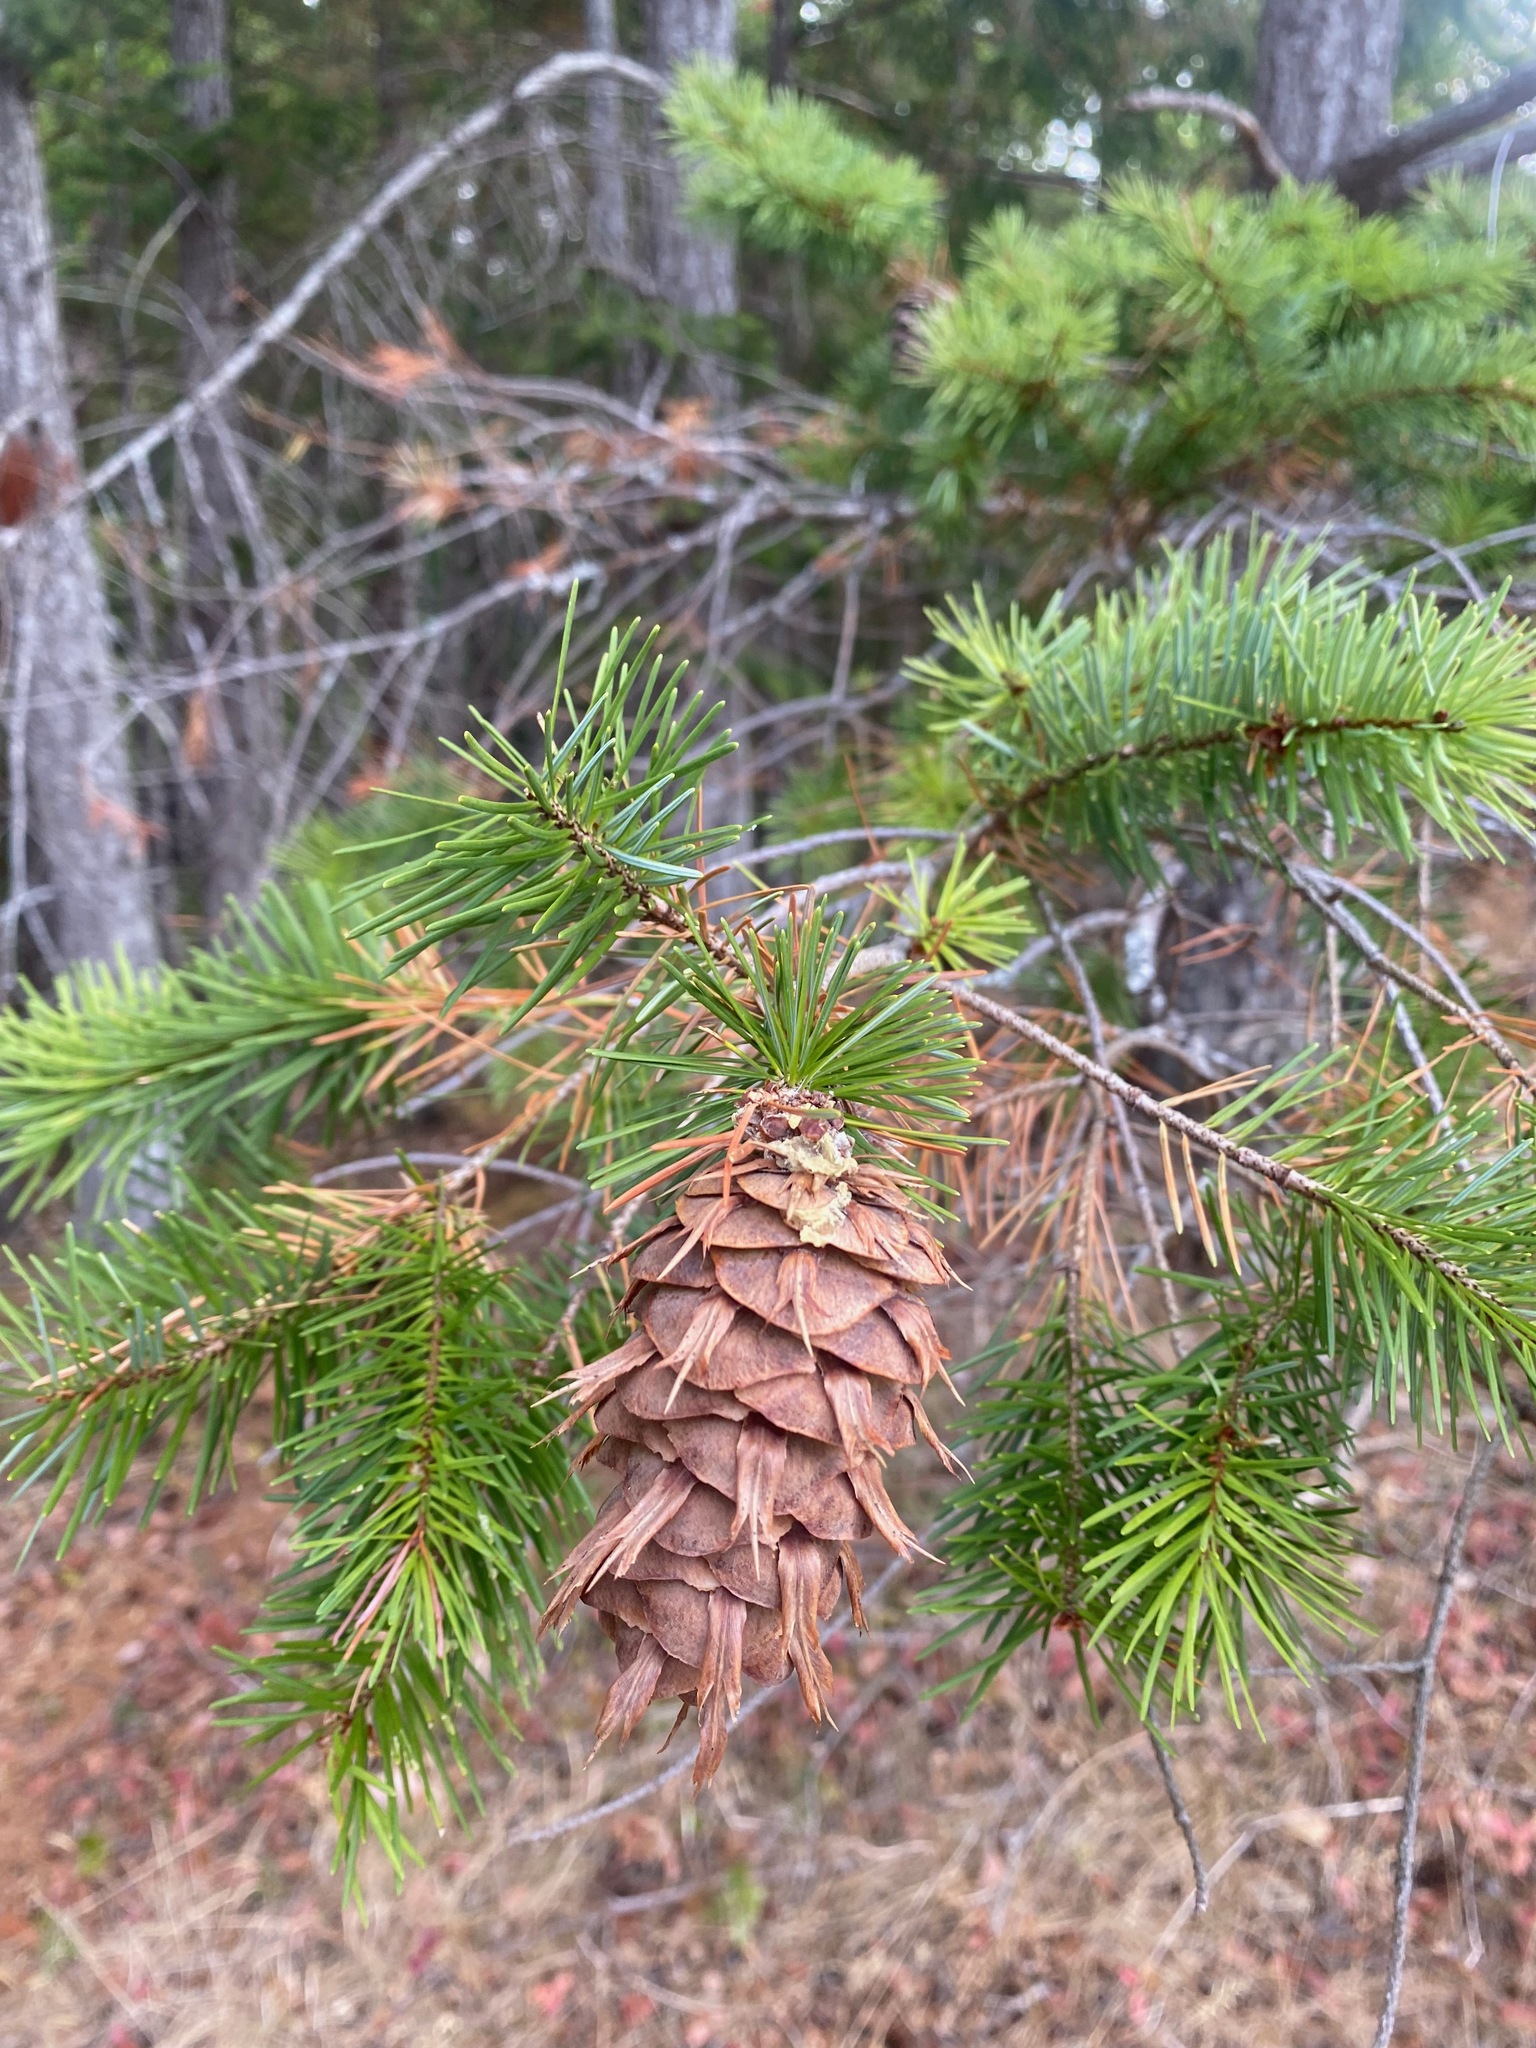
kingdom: Plantae
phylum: Tracheophyta
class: Pinopsida
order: Pinales
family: Pinaceae
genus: Pseudotsuga
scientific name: Pseudotsuga menziesii
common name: Douglas fir
